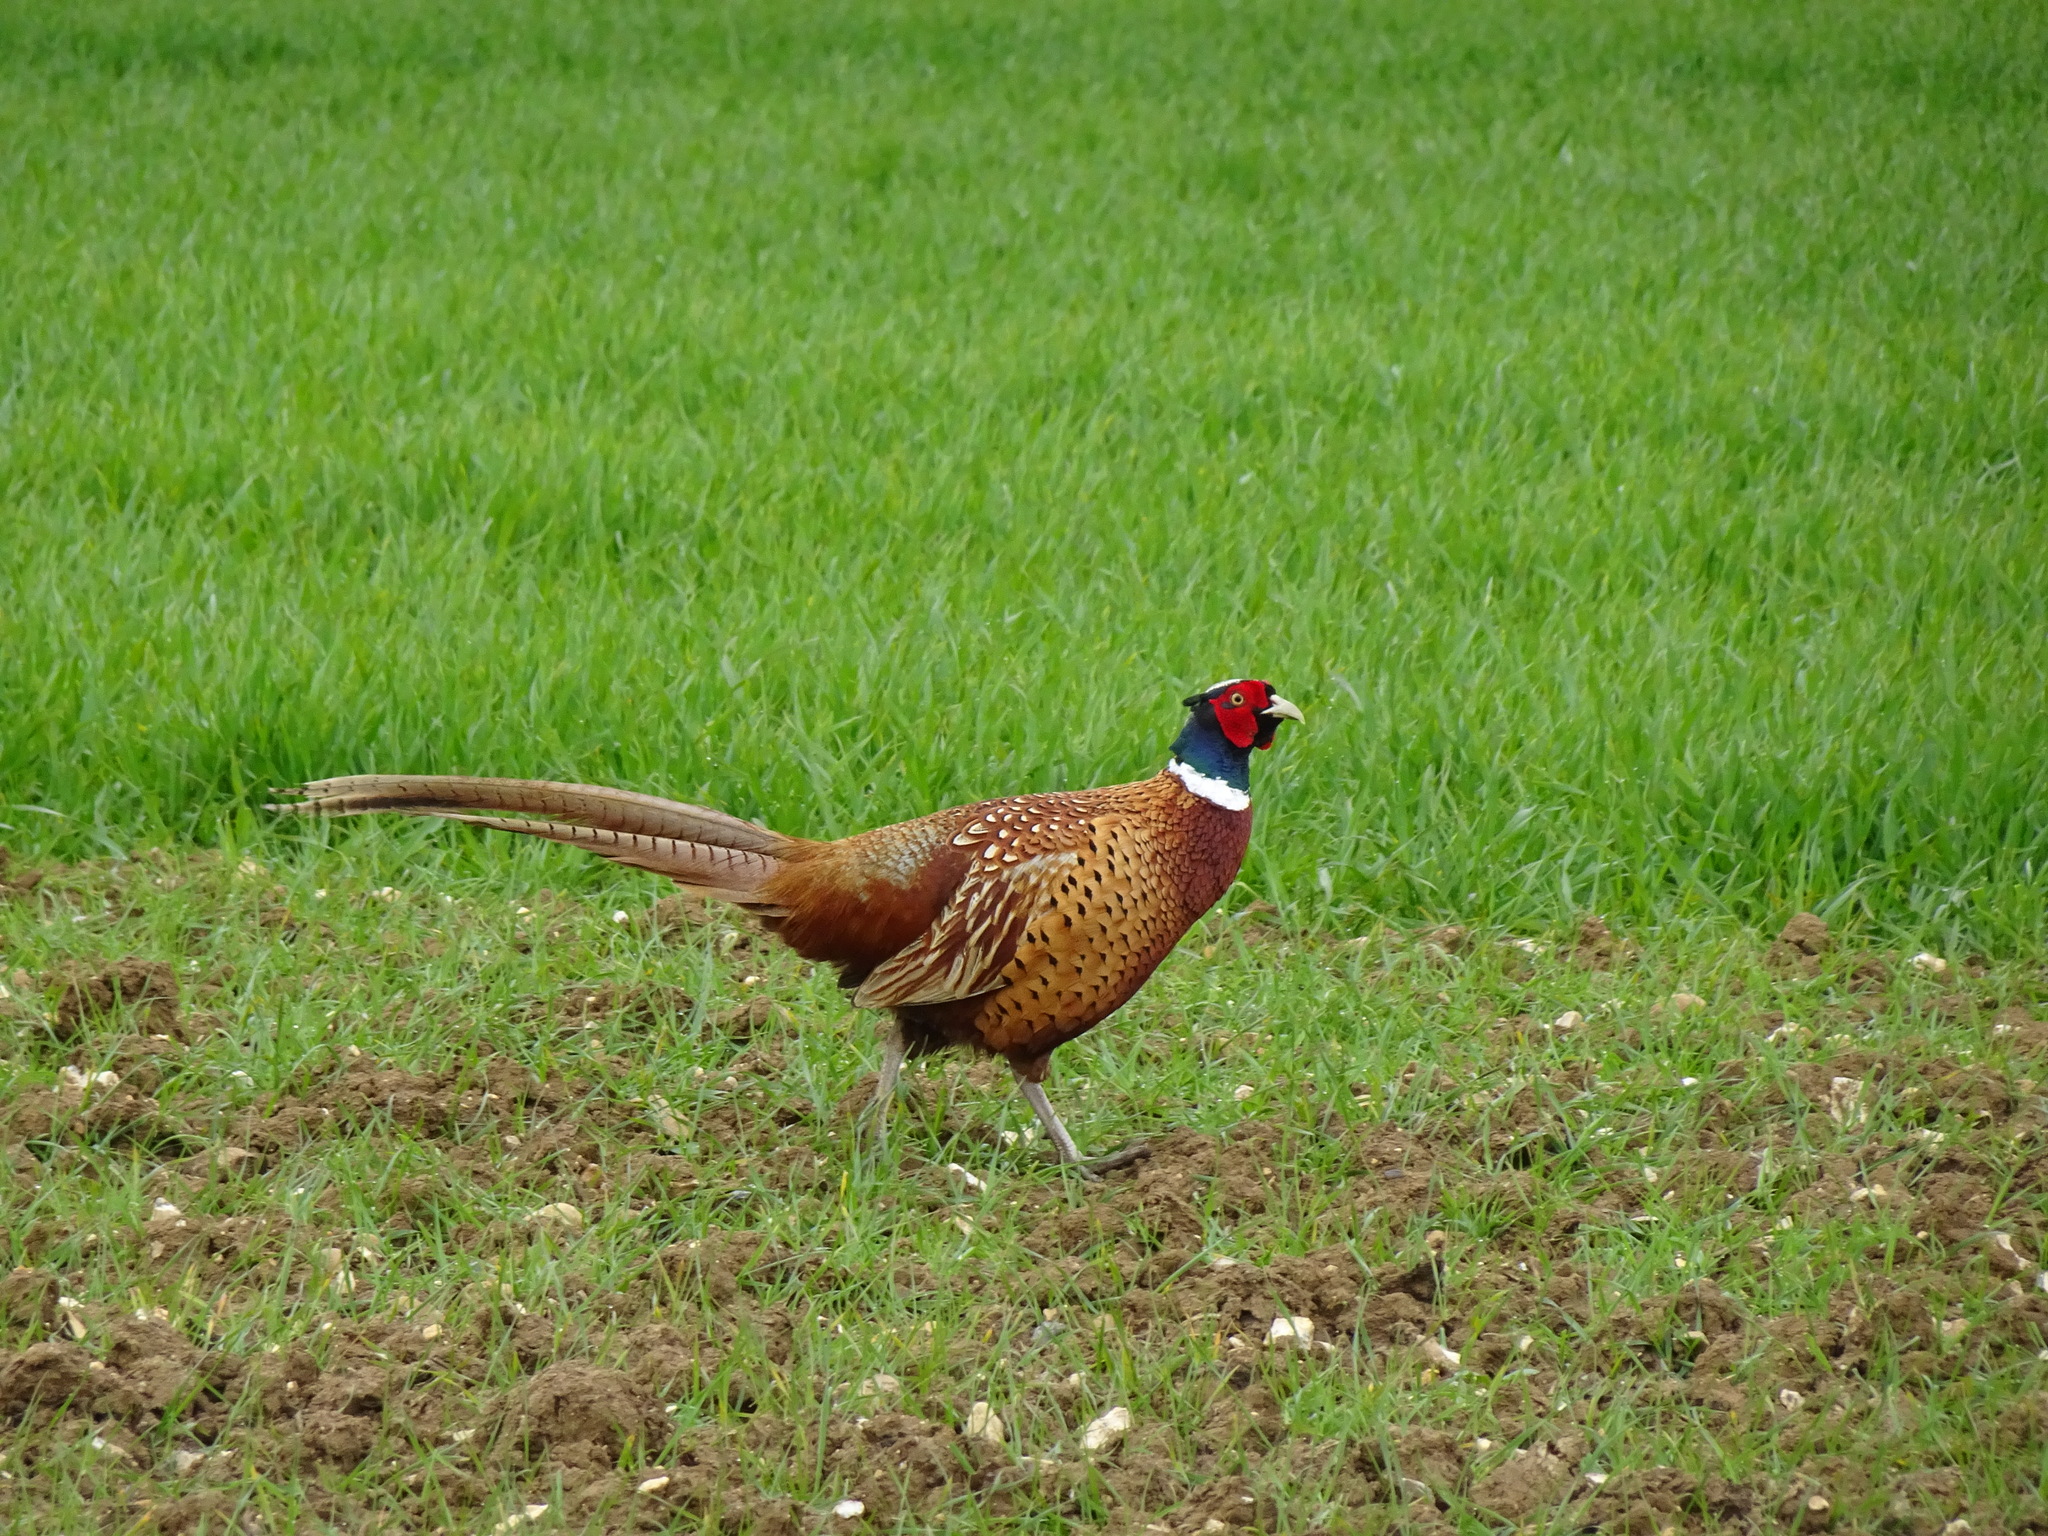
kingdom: Animalia
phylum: Chordata
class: Aves
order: Galliformes
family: Phasianidae
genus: Phasianus
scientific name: Phasianus colchicus
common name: Common pheasant
